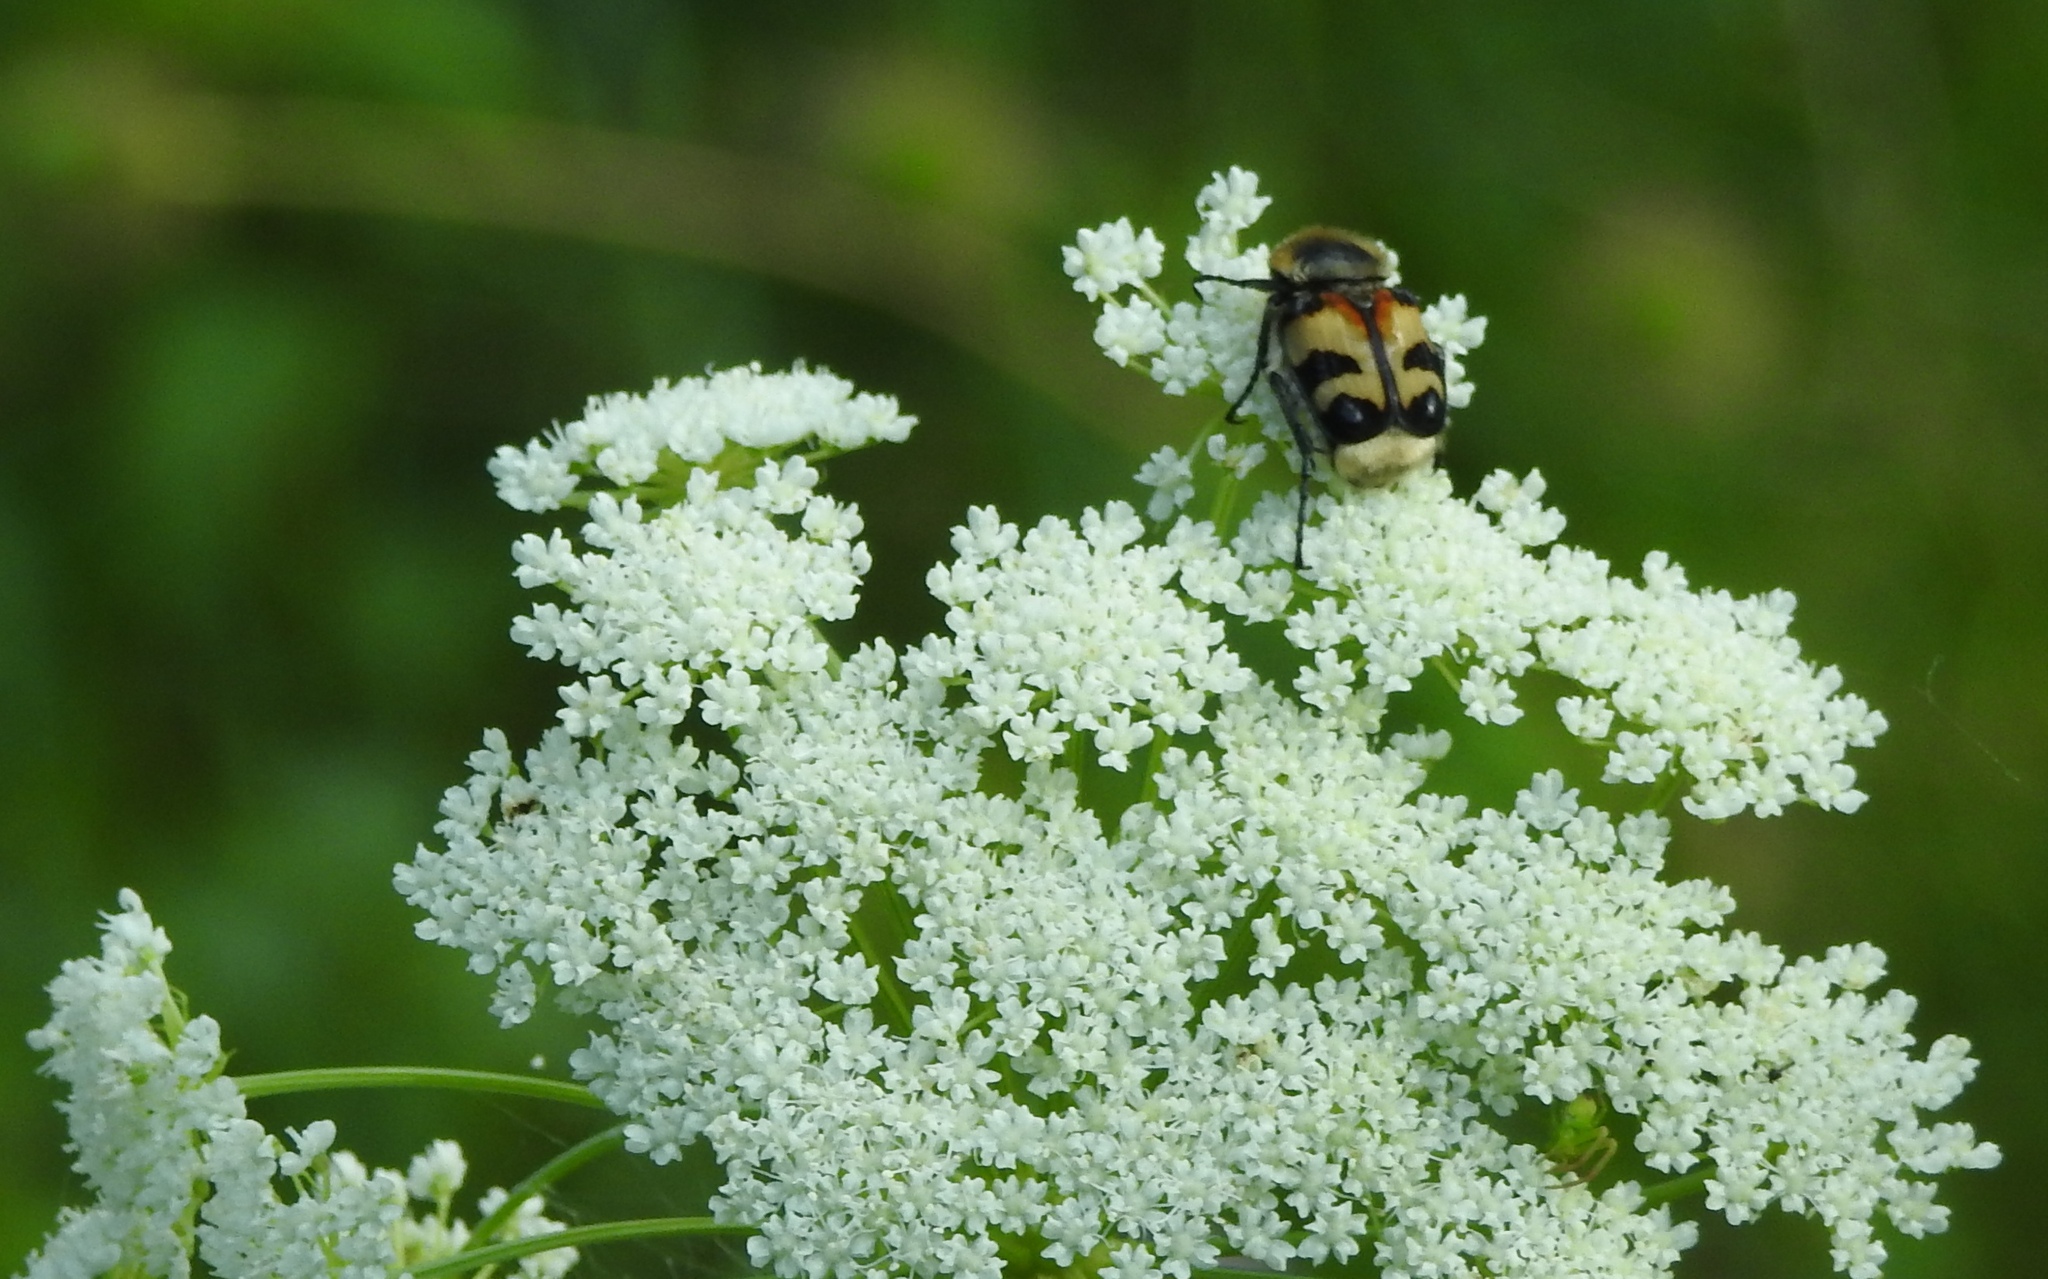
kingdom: Animalia
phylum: Arthropoda
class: Insecta
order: Coleoptera
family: Scarabaeidae
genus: Trichius
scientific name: Trichius fasciatus
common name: Bee beetle
